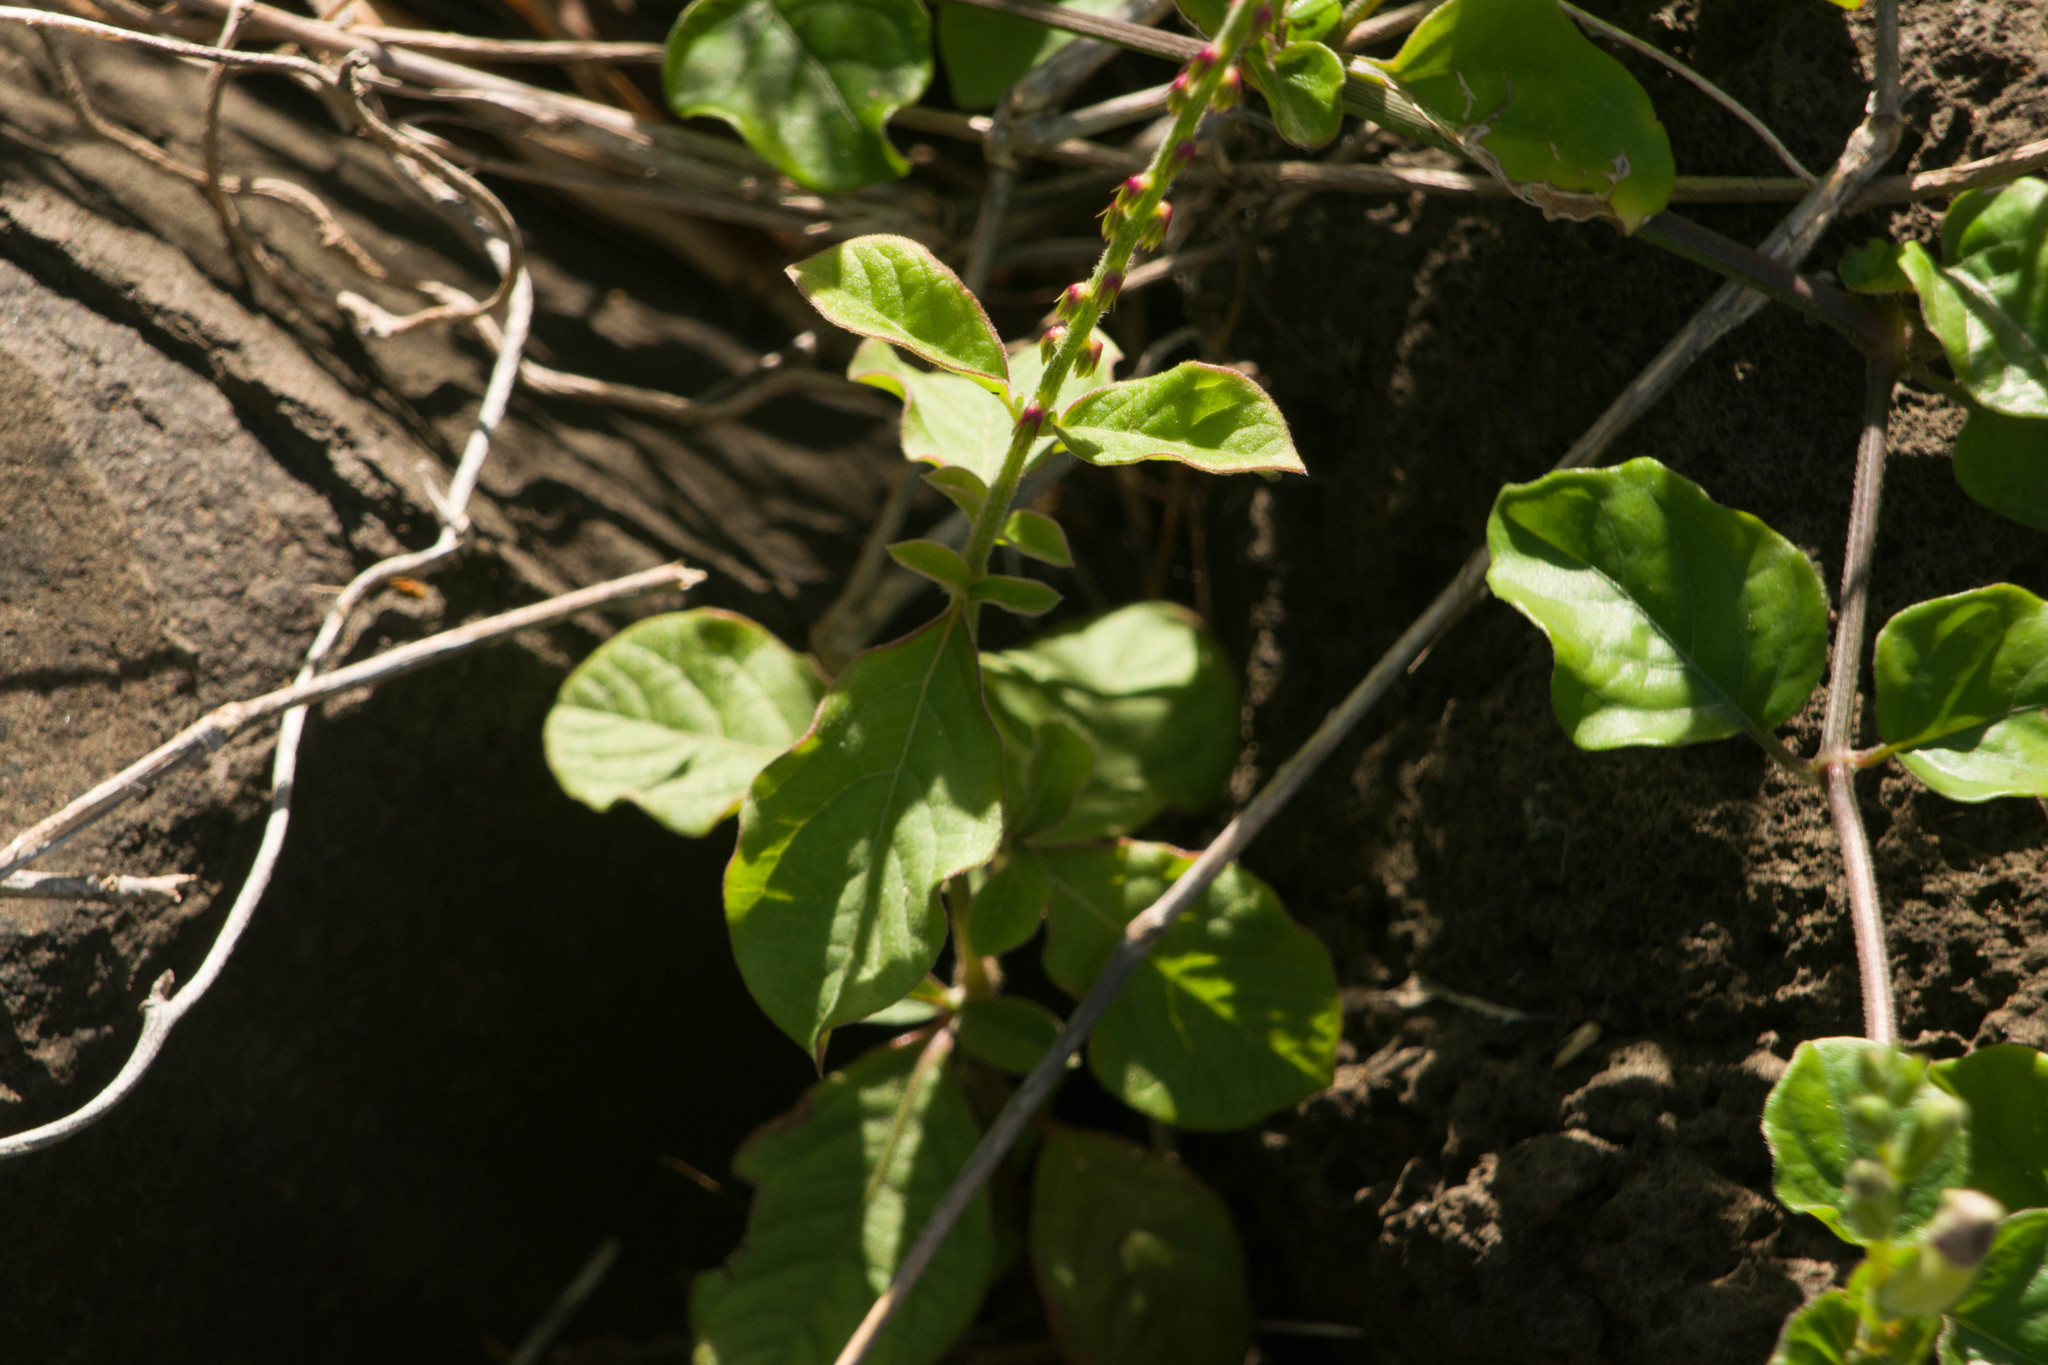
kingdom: Plantae
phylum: Tracheophyta
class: Magnoliopsida
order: Caryophyllales
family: Amaranthaceae
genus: Achyranthes
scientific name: Achyranthes aspera
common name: Devil's horsewhip
